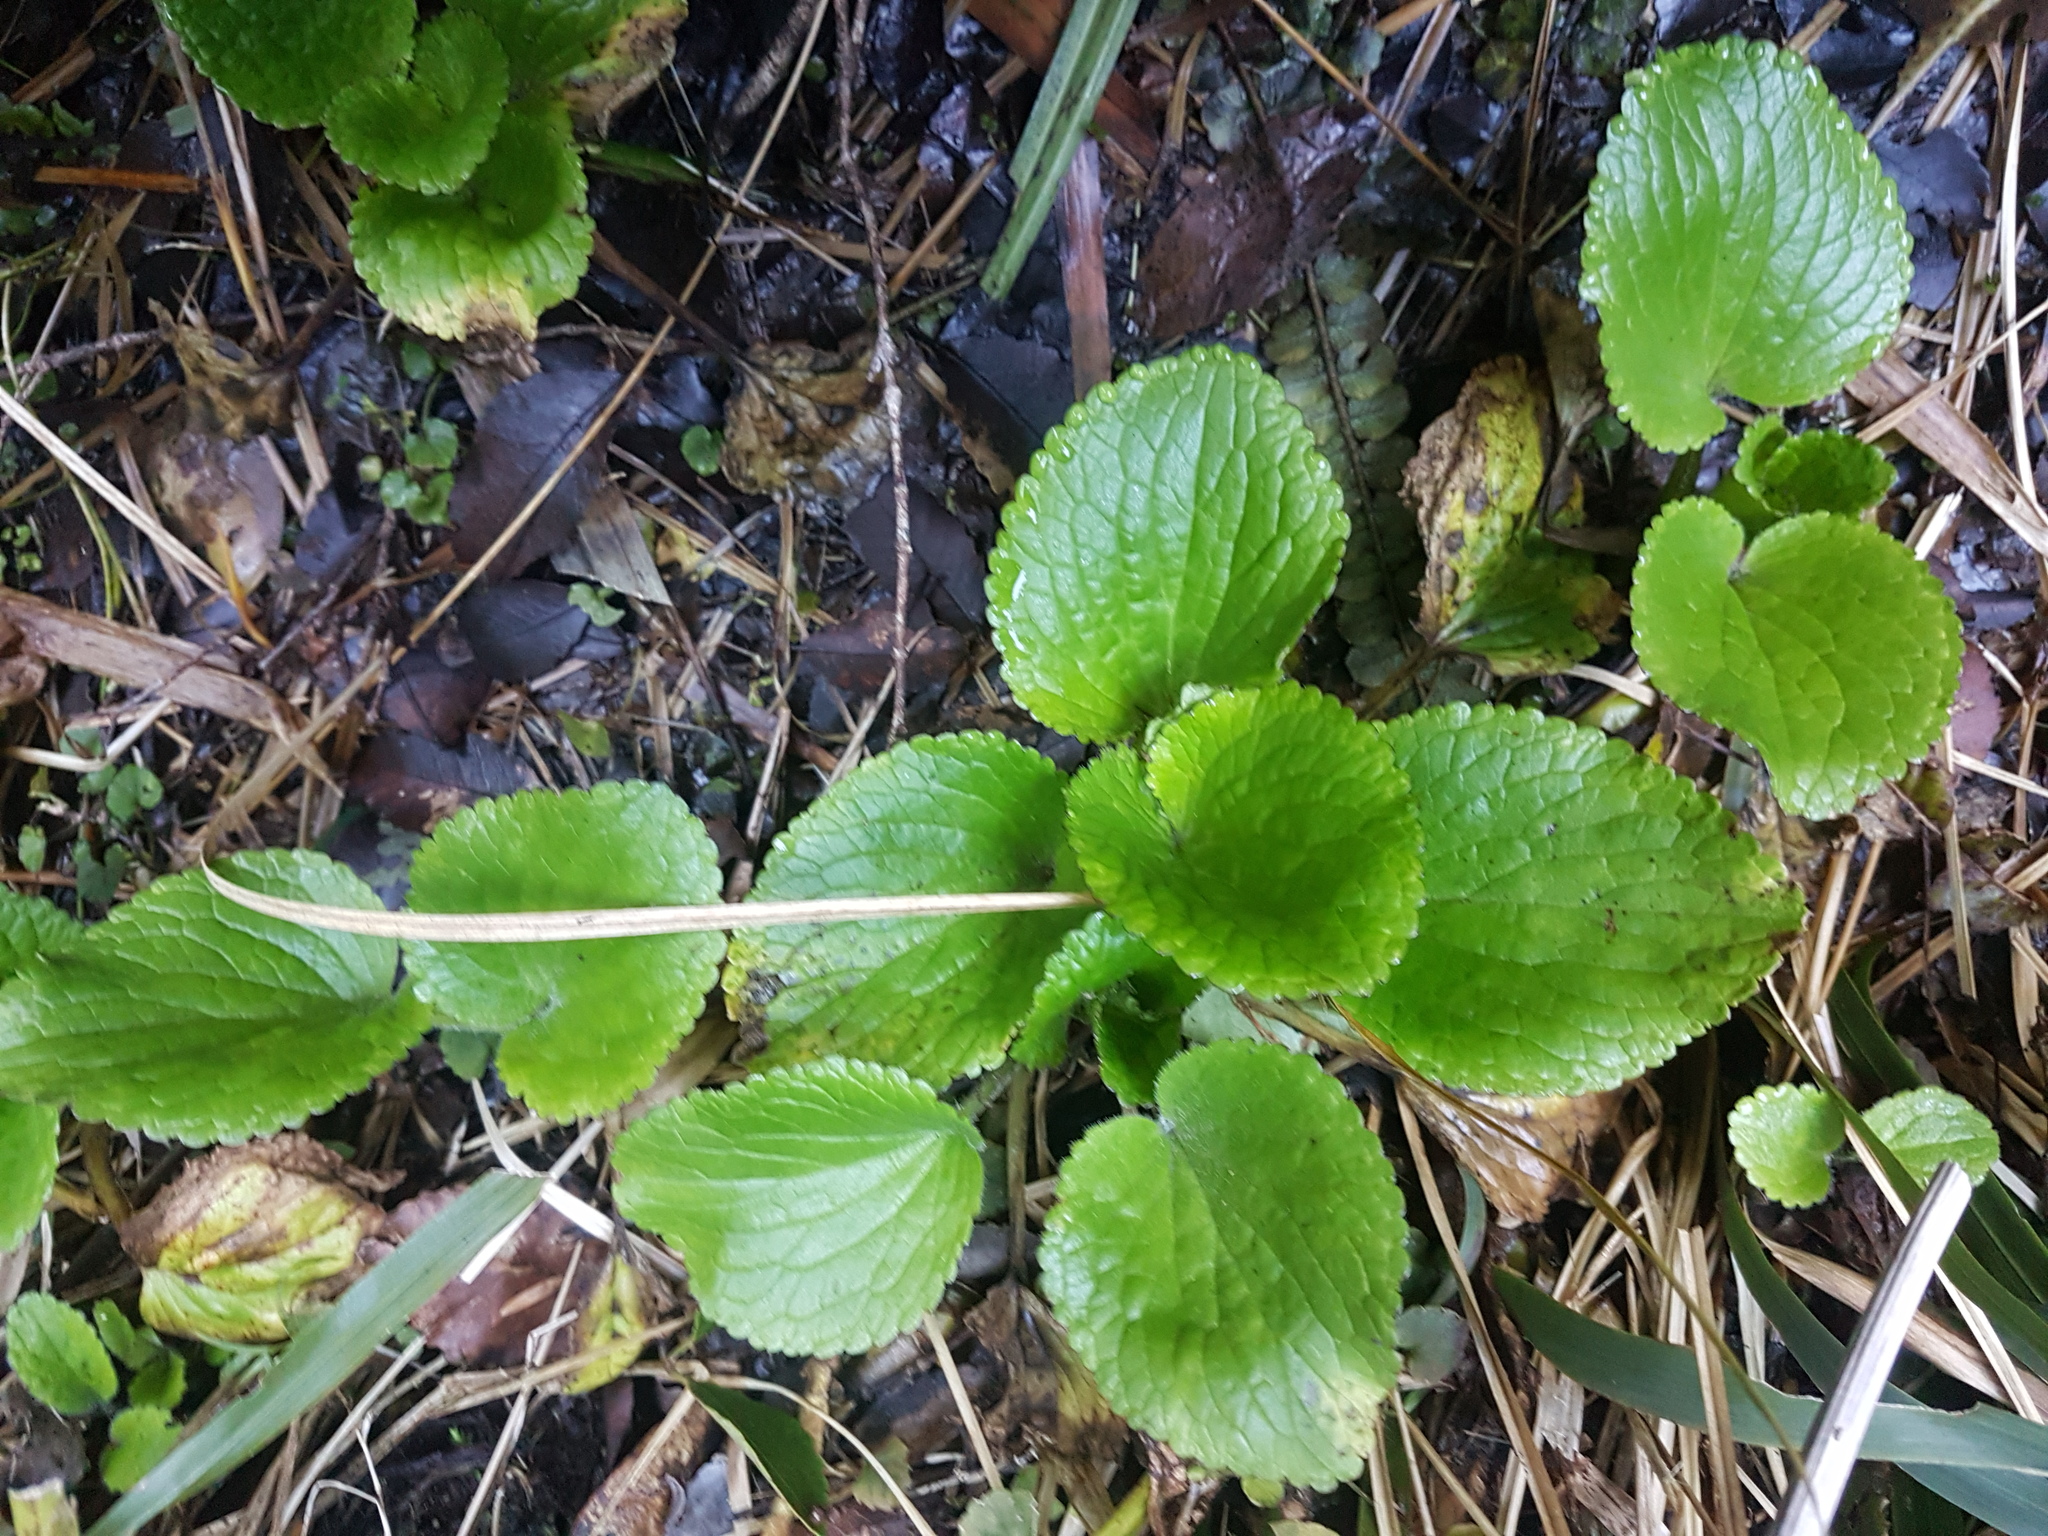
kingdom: Plantae
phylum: Tracheophyta
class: Magnoliopsida
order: Lamiales
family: Plantaginaceae
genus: Ourisia
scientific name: Ourisia macrophylla
